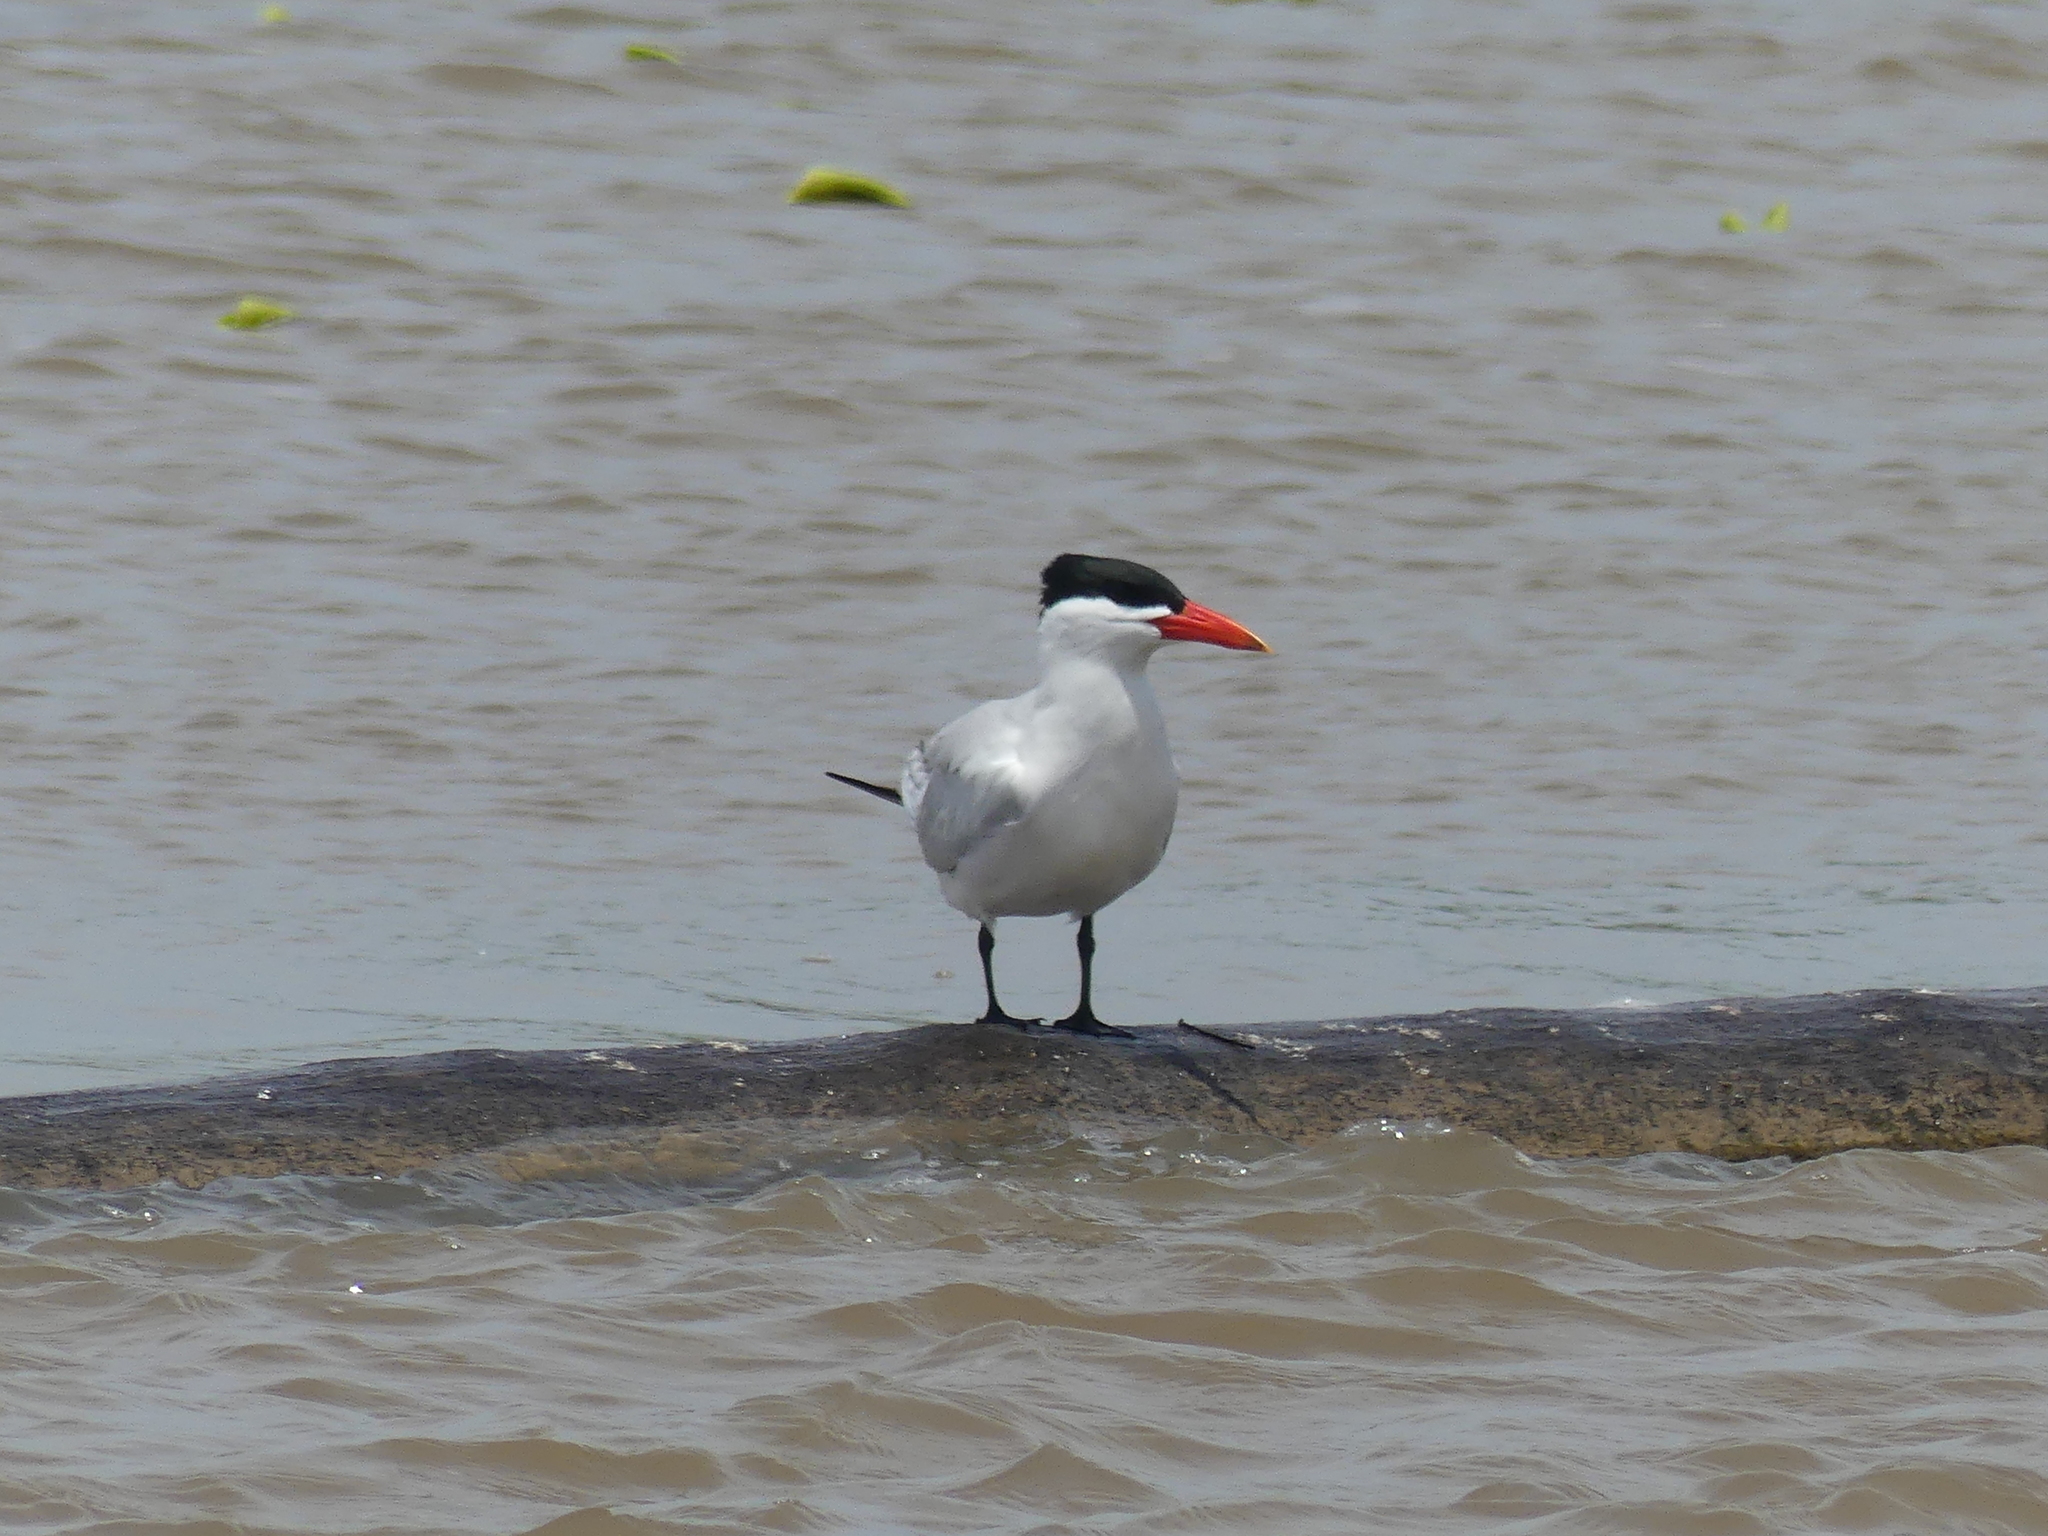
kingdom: Animalia
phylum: Chordata
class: Aves
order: Charadriiformes
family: Laridae
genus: Hydroprogne
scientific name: Hydroprogne caspia
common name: Caspian tern
